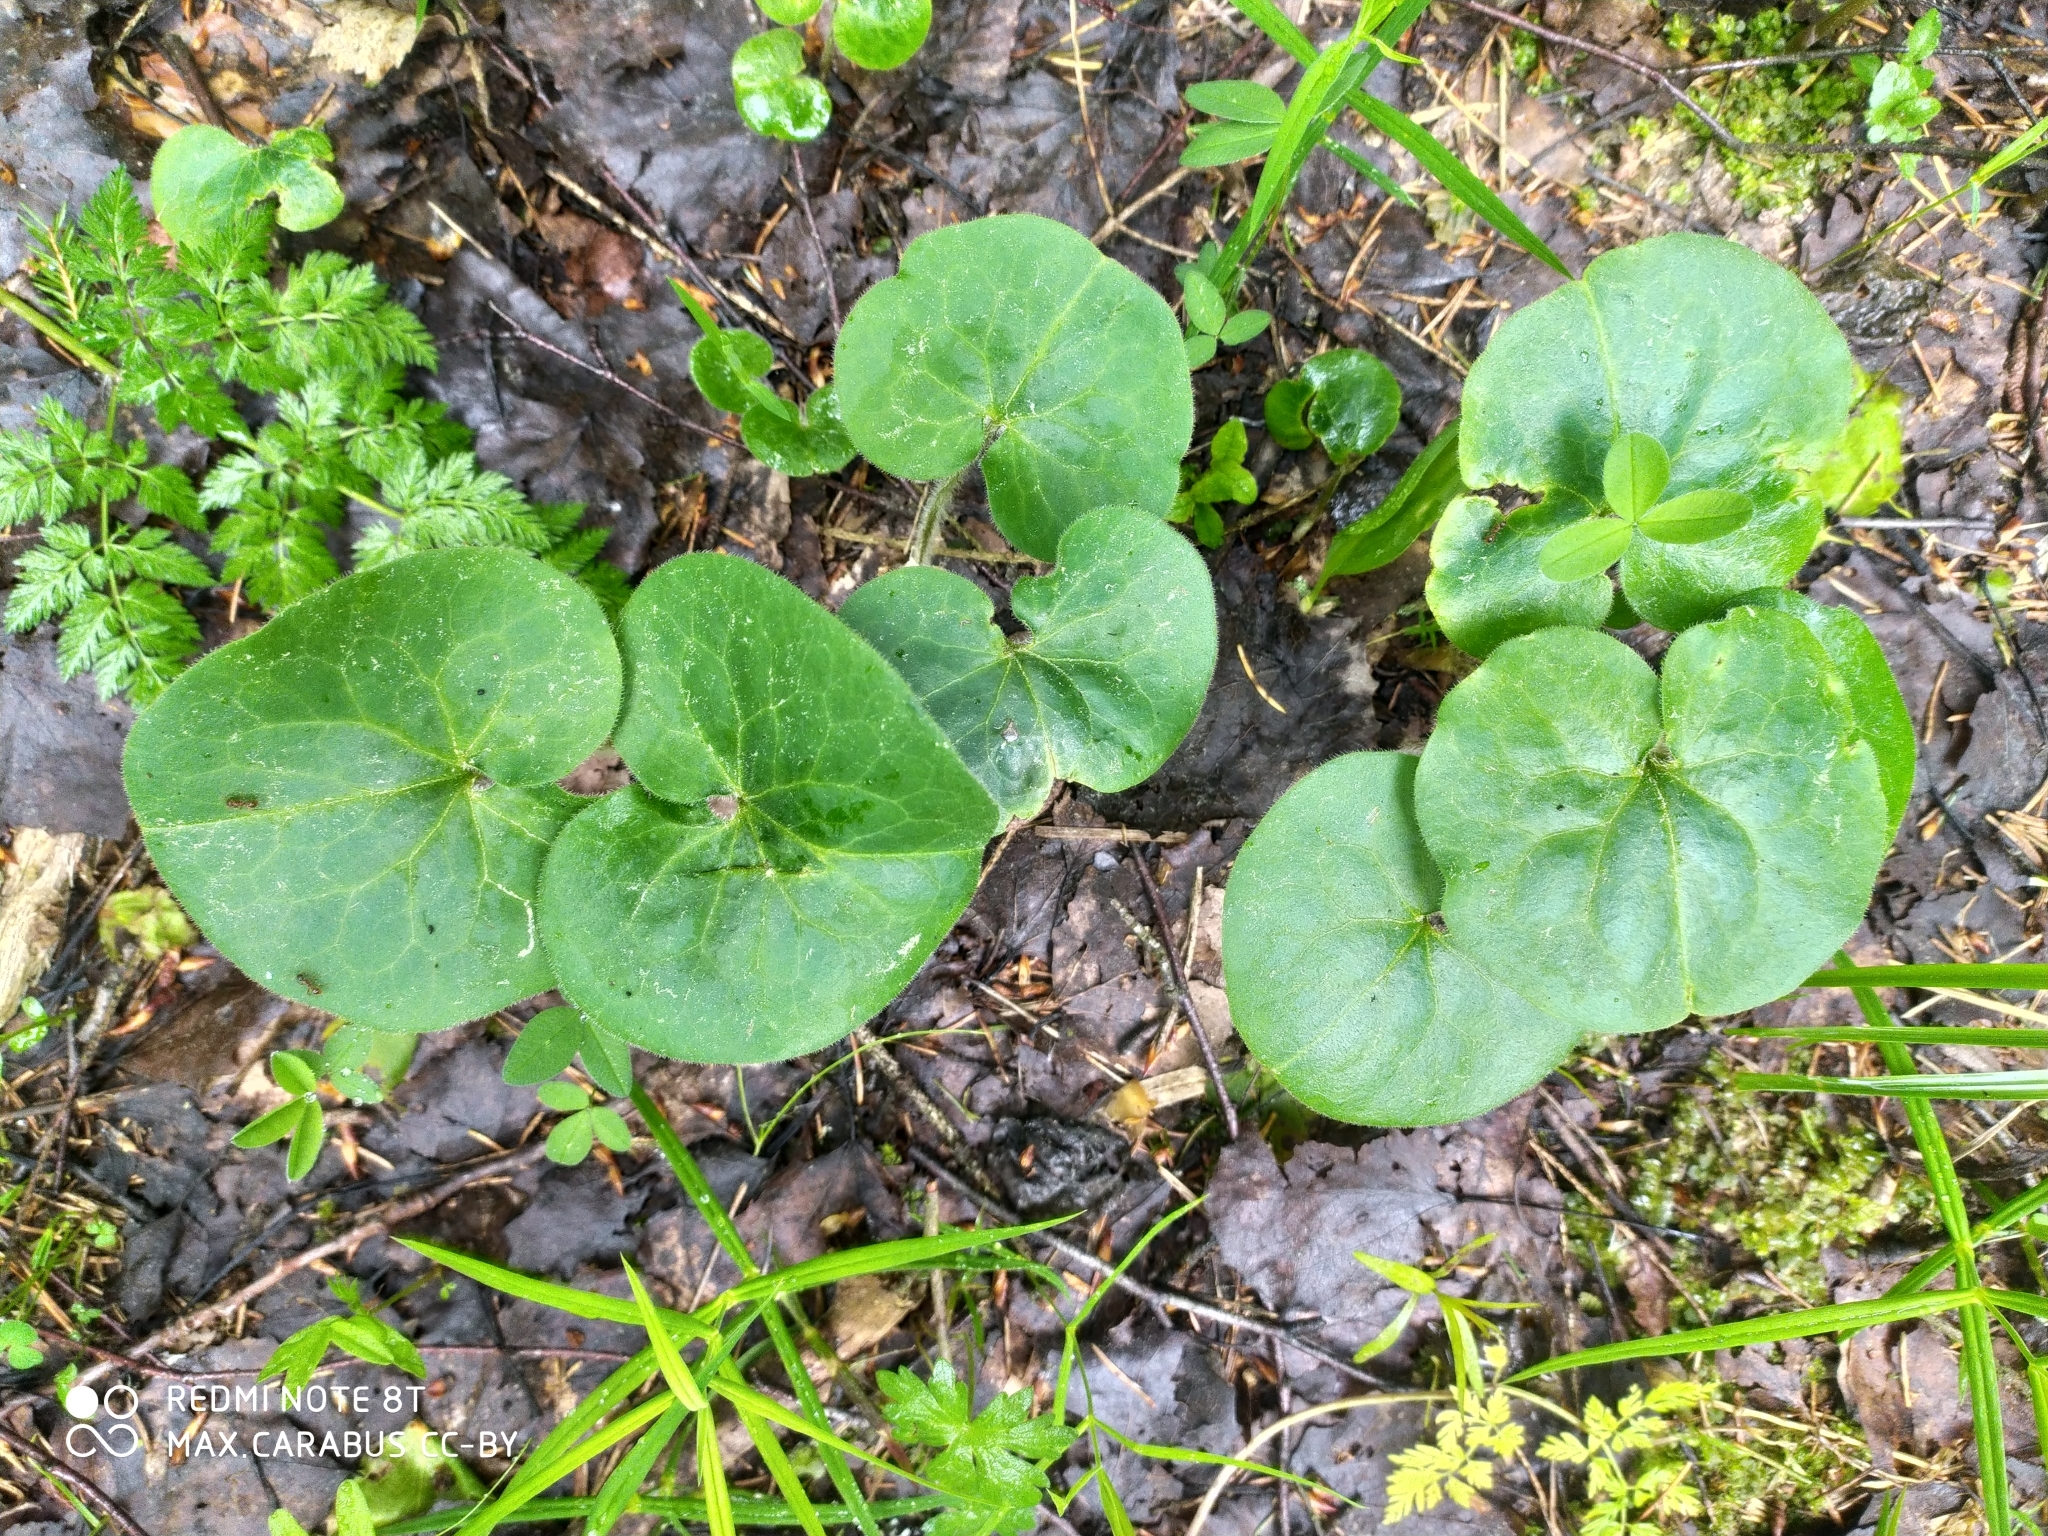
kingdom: Plantae
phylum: Tracheophyta
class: Magnoliopsida
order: Piperales
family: Aristolochiaceae
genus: Asarum
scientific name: Asarum europaeum
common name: Asarabacca
